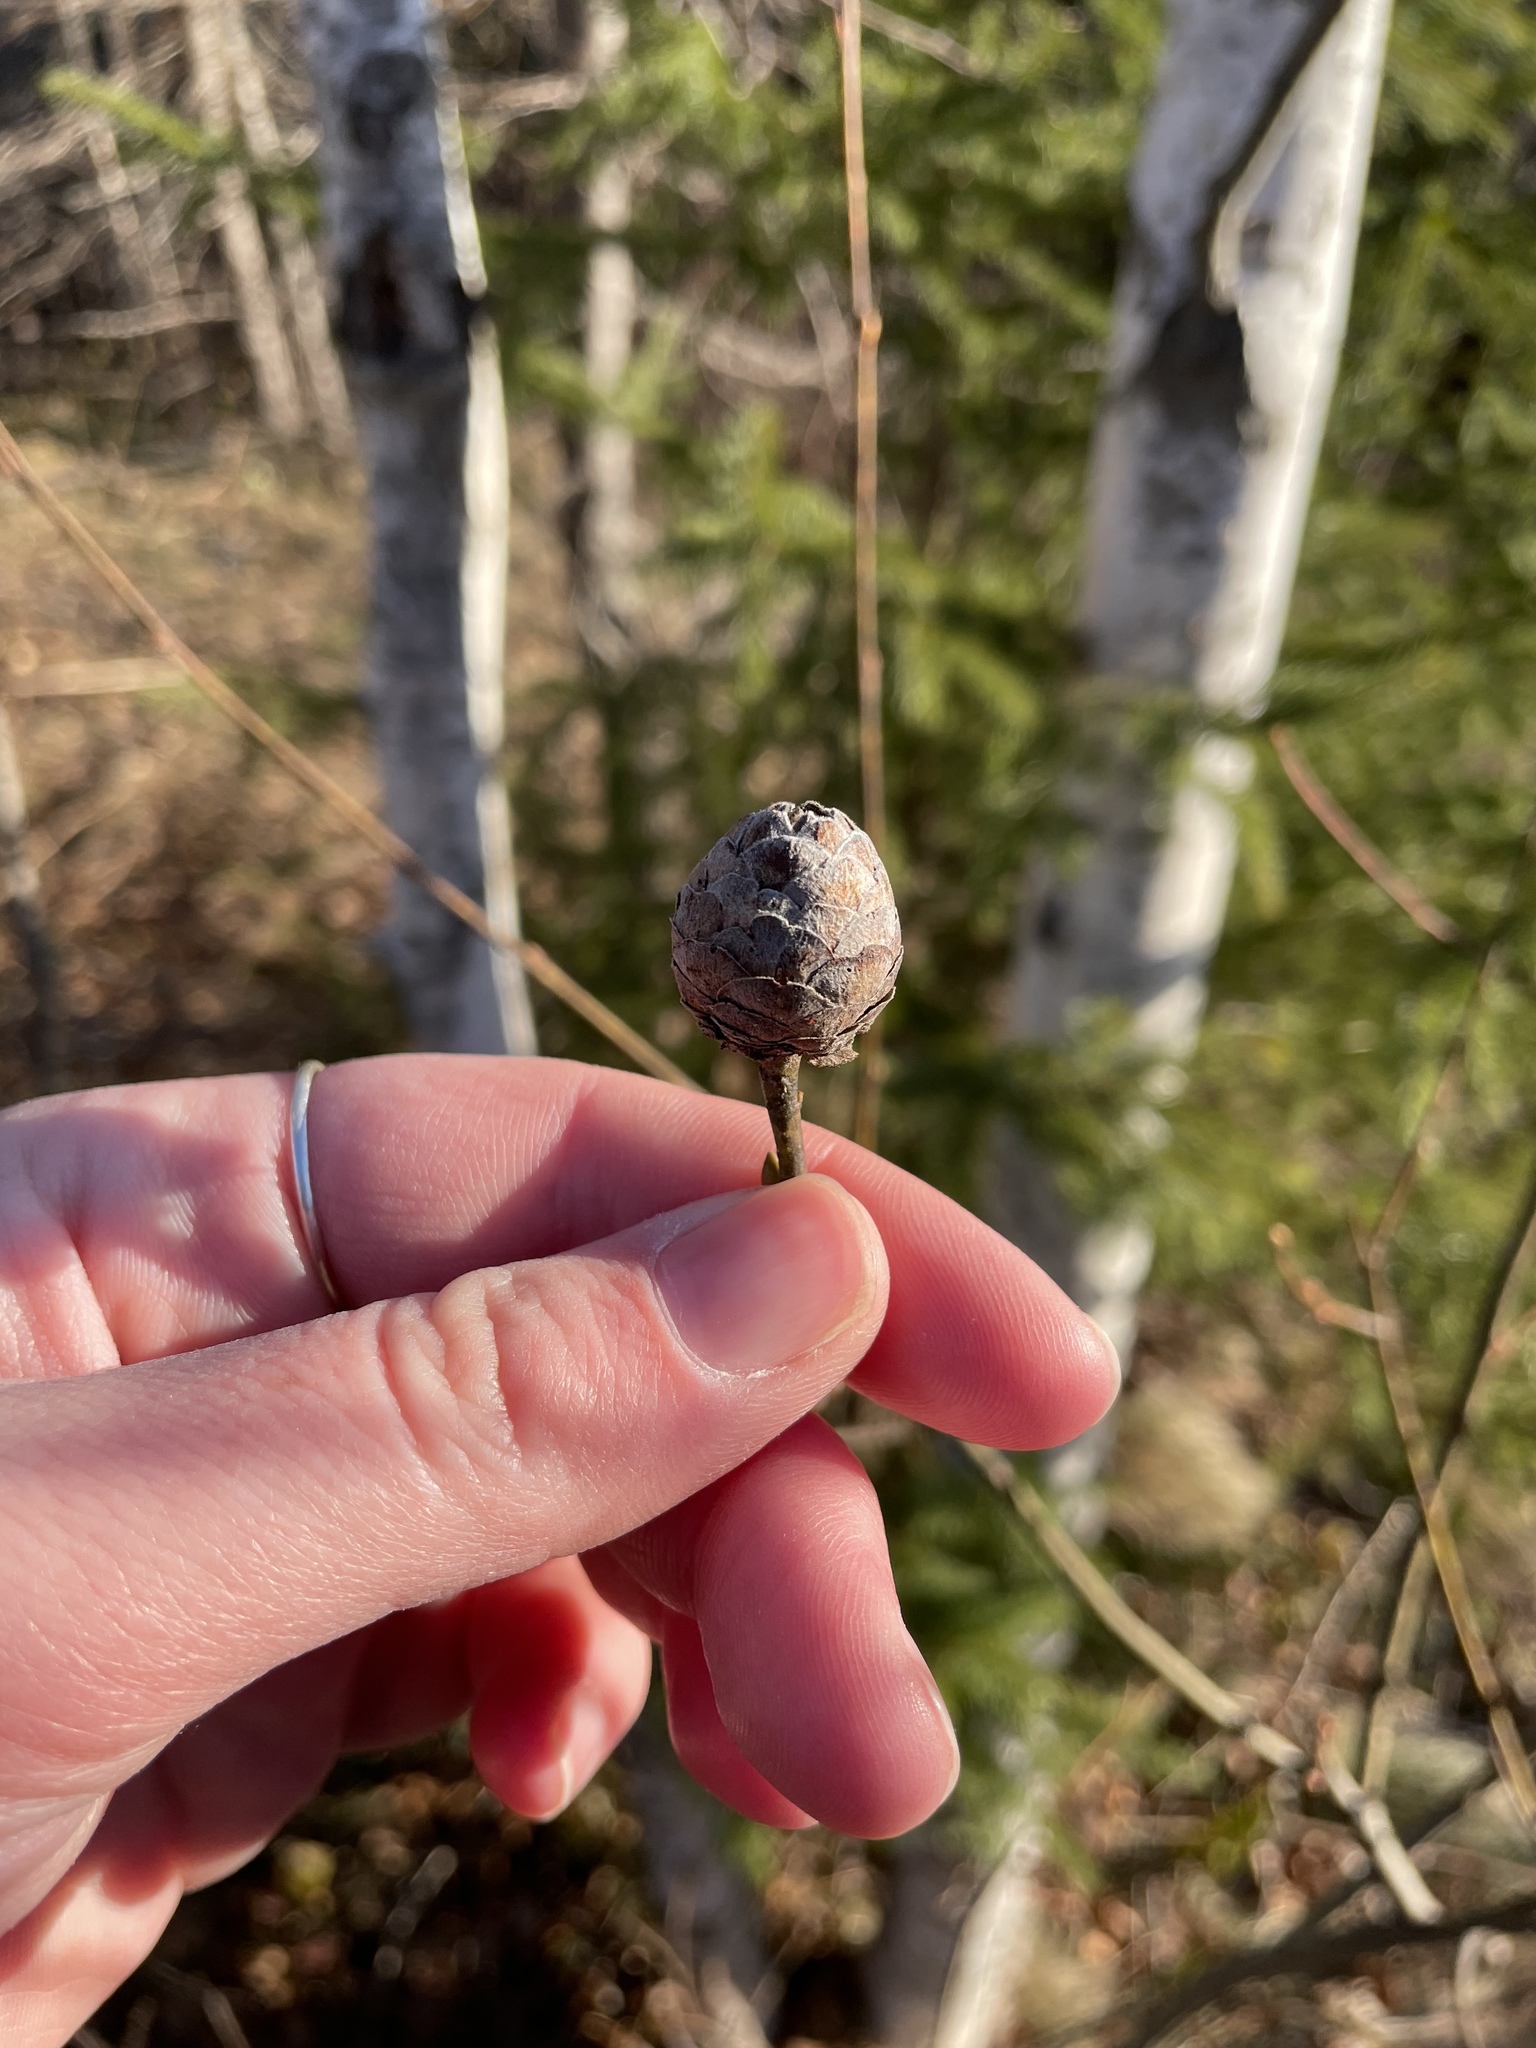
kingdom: Animalia
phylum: Arthropoda
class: Insecta
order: Diptera
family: Cecidomyiidae
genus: Rabdophaga
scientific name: Rabdophaga strobiloides
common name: Willow pinecone gall midge
